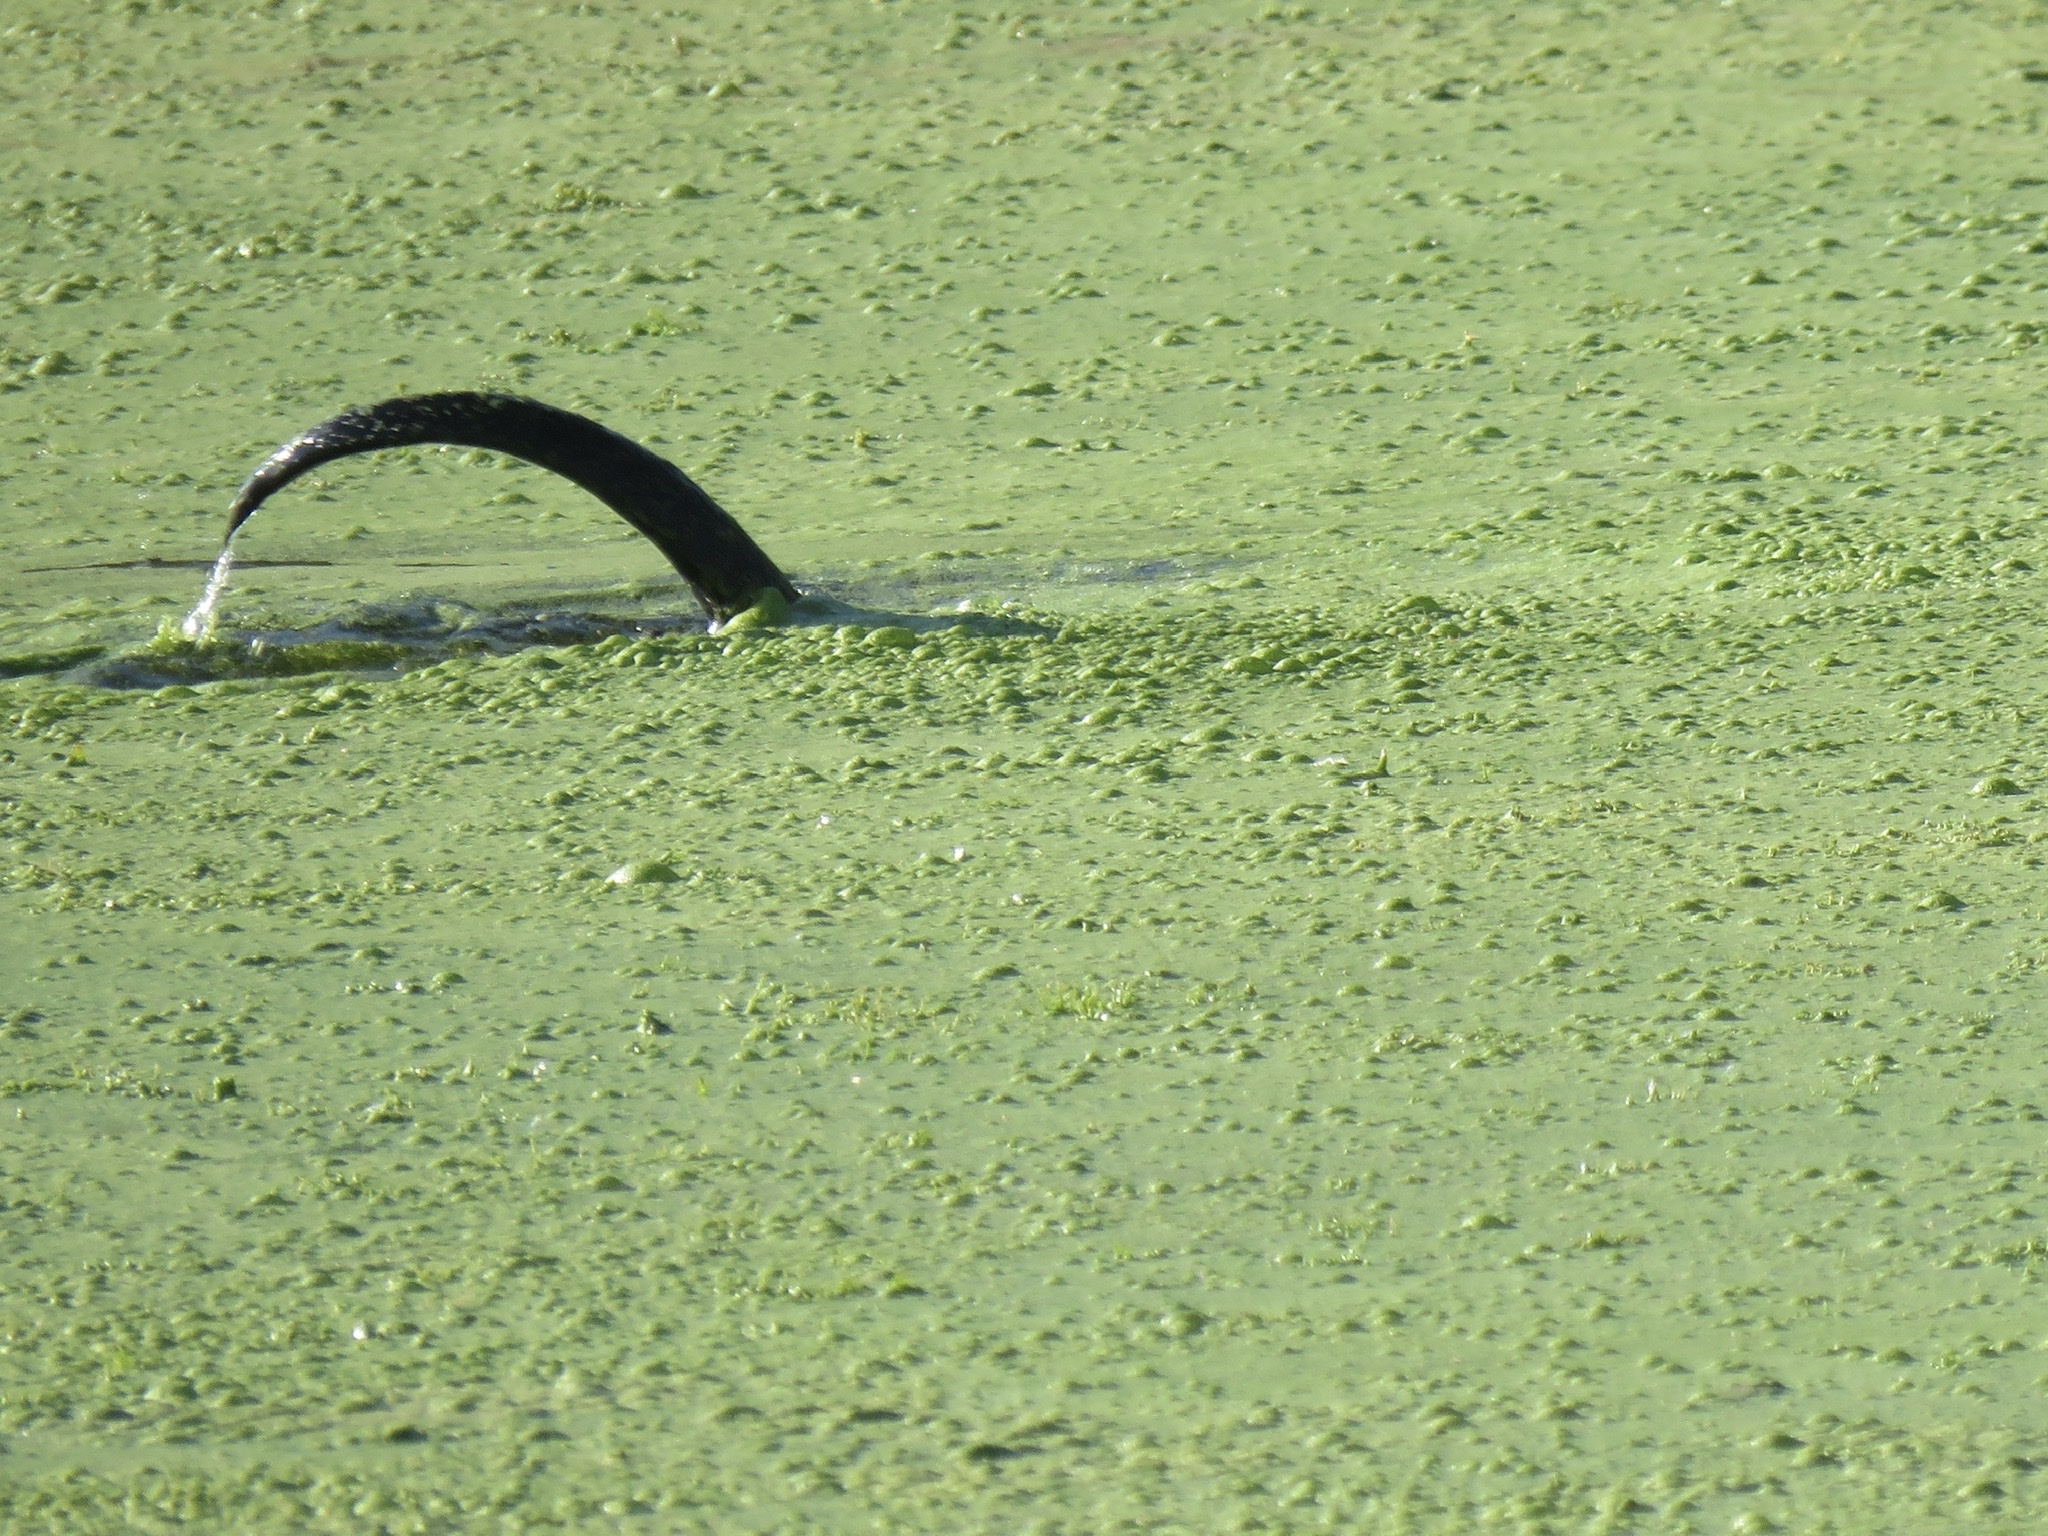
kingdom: Animalia
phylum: Chordata
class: Mammalia
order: Carnivora
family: Mustelidae
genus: Lontra
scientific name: Lontra canadensis
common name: North american river otter
